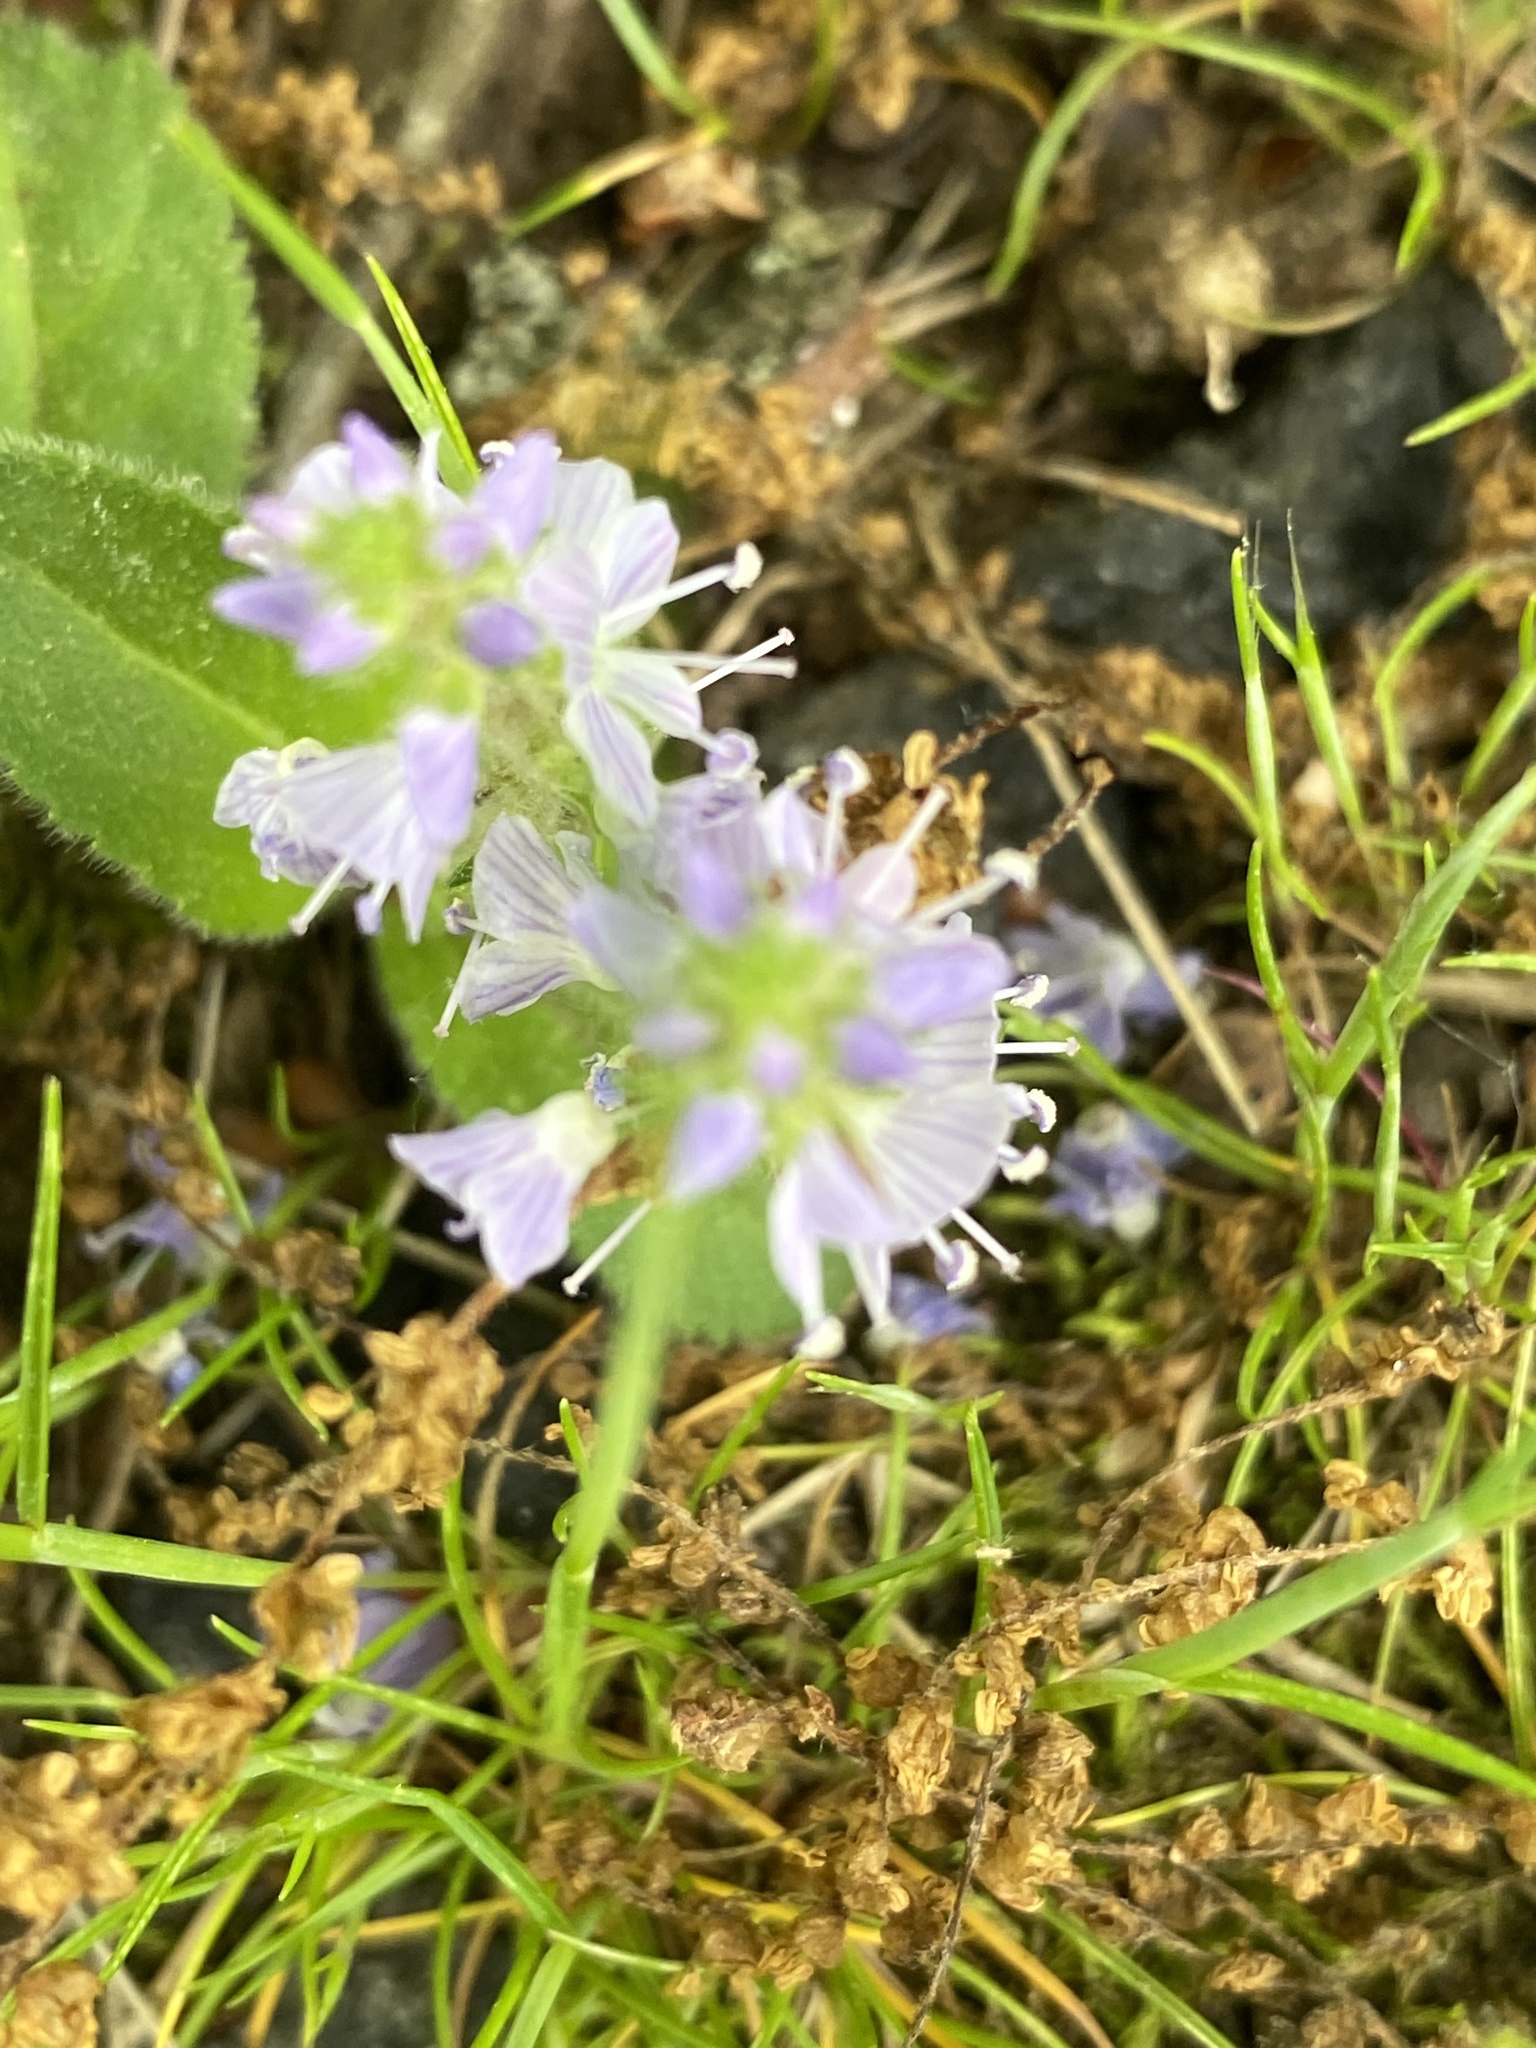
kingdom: Plantae
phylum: Tracheophyta
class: Magnoliopsida
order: Lamiales
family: Plantaginaceae
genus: Veronica
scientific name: Veronica officinalis
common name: Common speedwell
